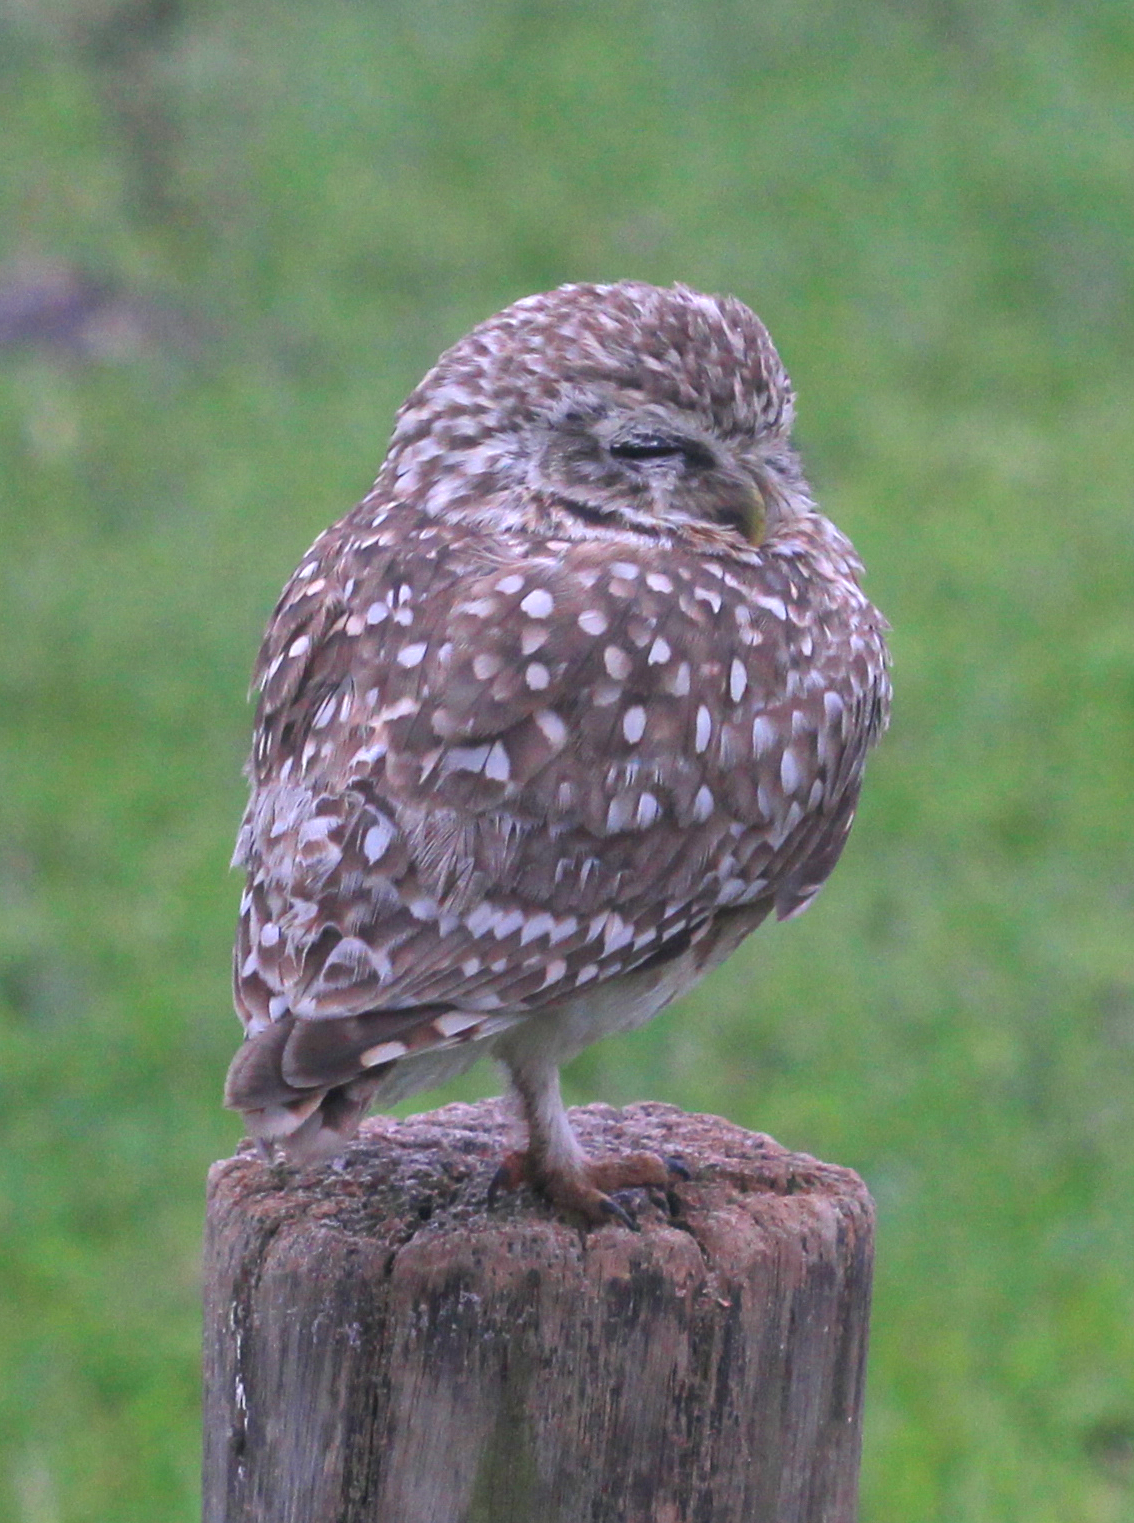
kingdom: Animalia
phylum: Chordata
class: Aves
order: Strigiformes
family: Strigidae
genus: Athene
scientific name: Athene cunicularia
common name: Burrowing owl
